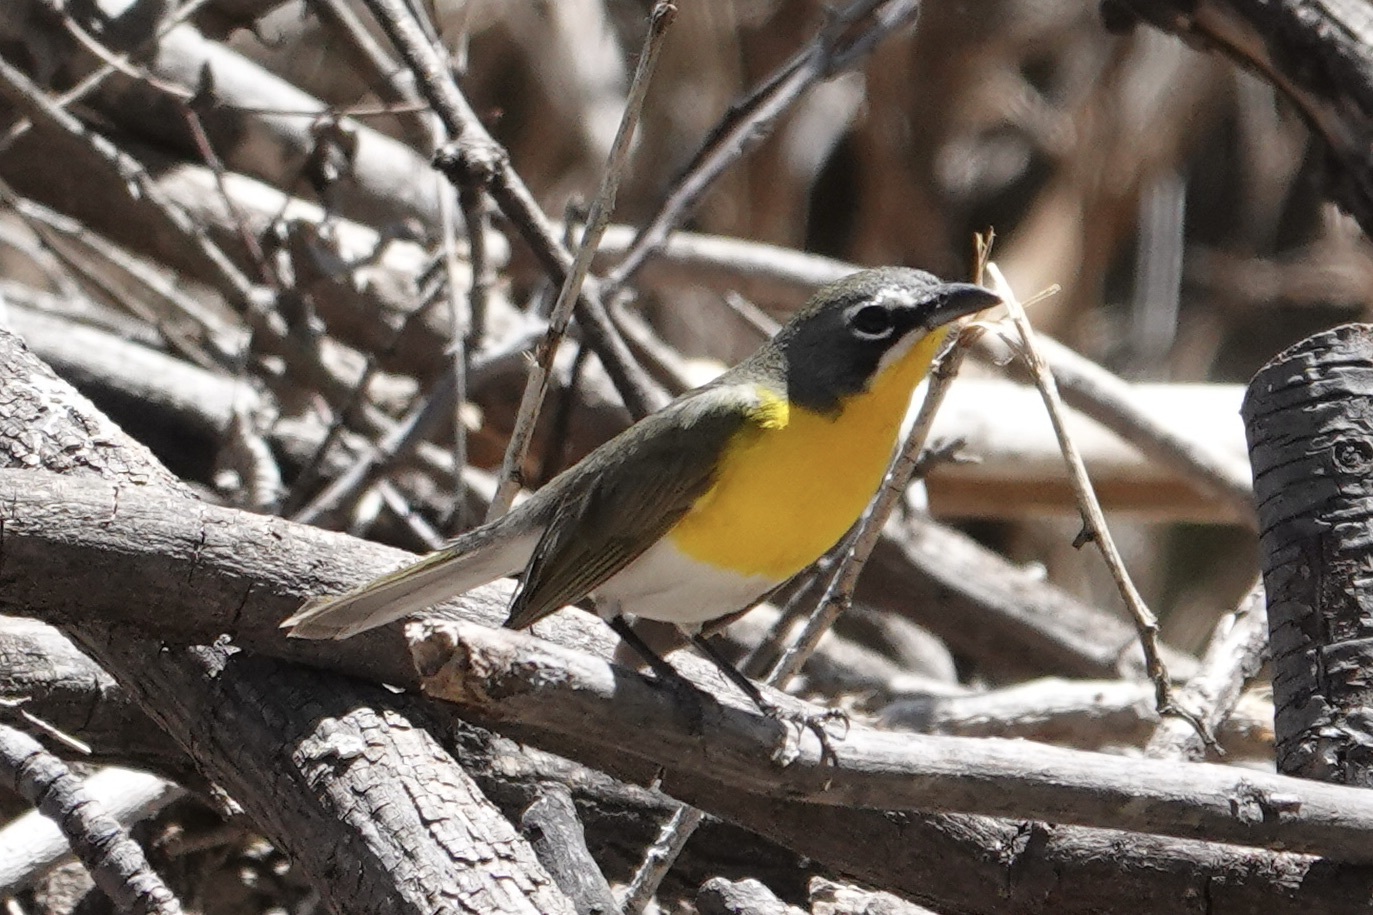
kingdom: Animalia
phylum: Chordata
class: Aves
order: Passeriformes
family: Parulidae
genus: Icteria
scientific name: Icteria virens
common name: Yellow-breasted chat
